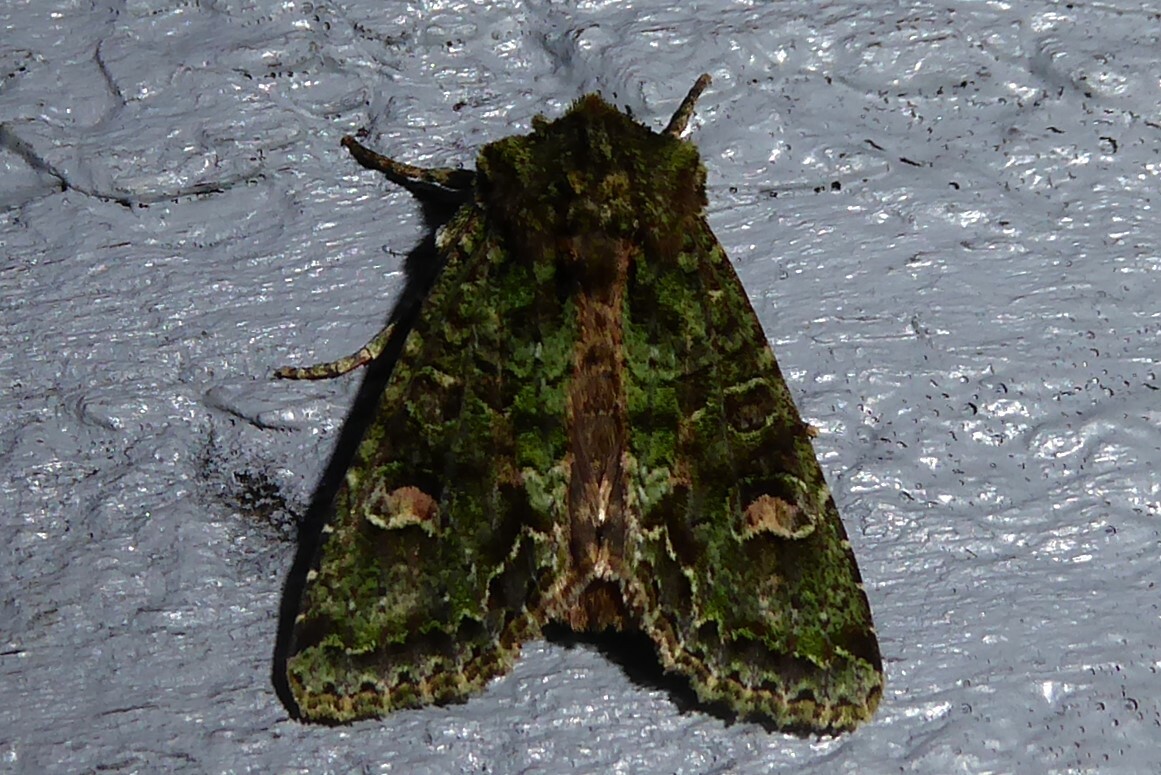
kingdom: Animalia
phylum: Arthropoda
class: Insecta
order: Lepidoptera
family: Noctuidae
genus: Ichneutica
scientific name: Ichneutica
